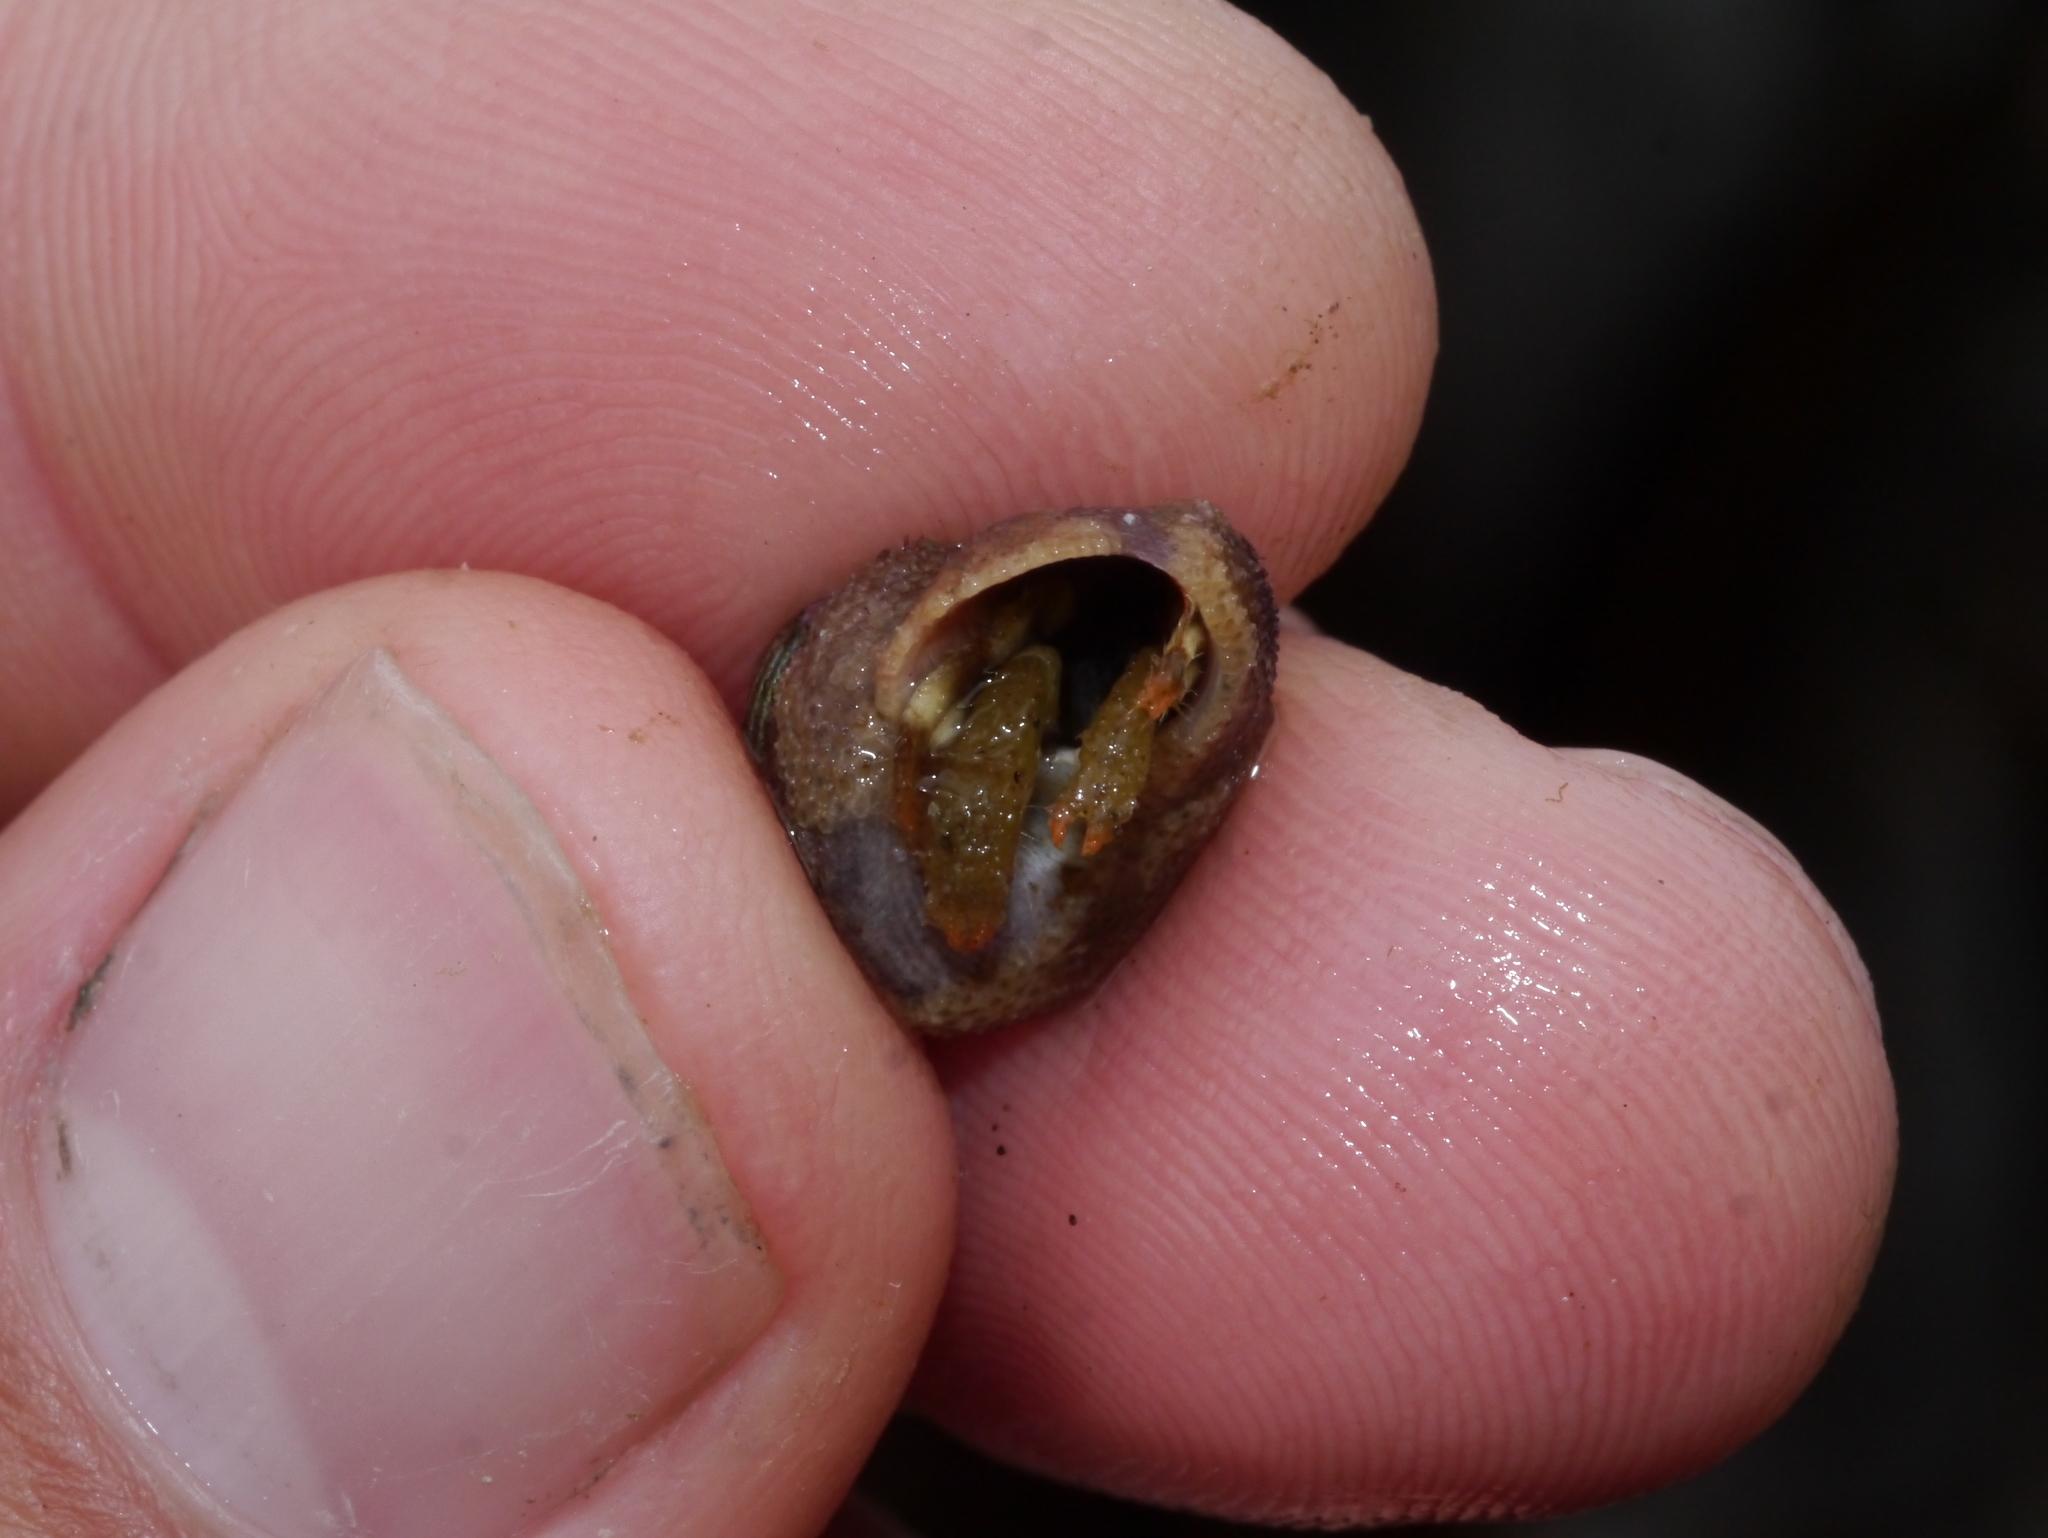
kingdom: Animalia
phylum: Arthropoda
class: Malacostraca
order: Decapoda
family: Paguridae
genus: Pagurus
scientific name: Pagurus caurinus
